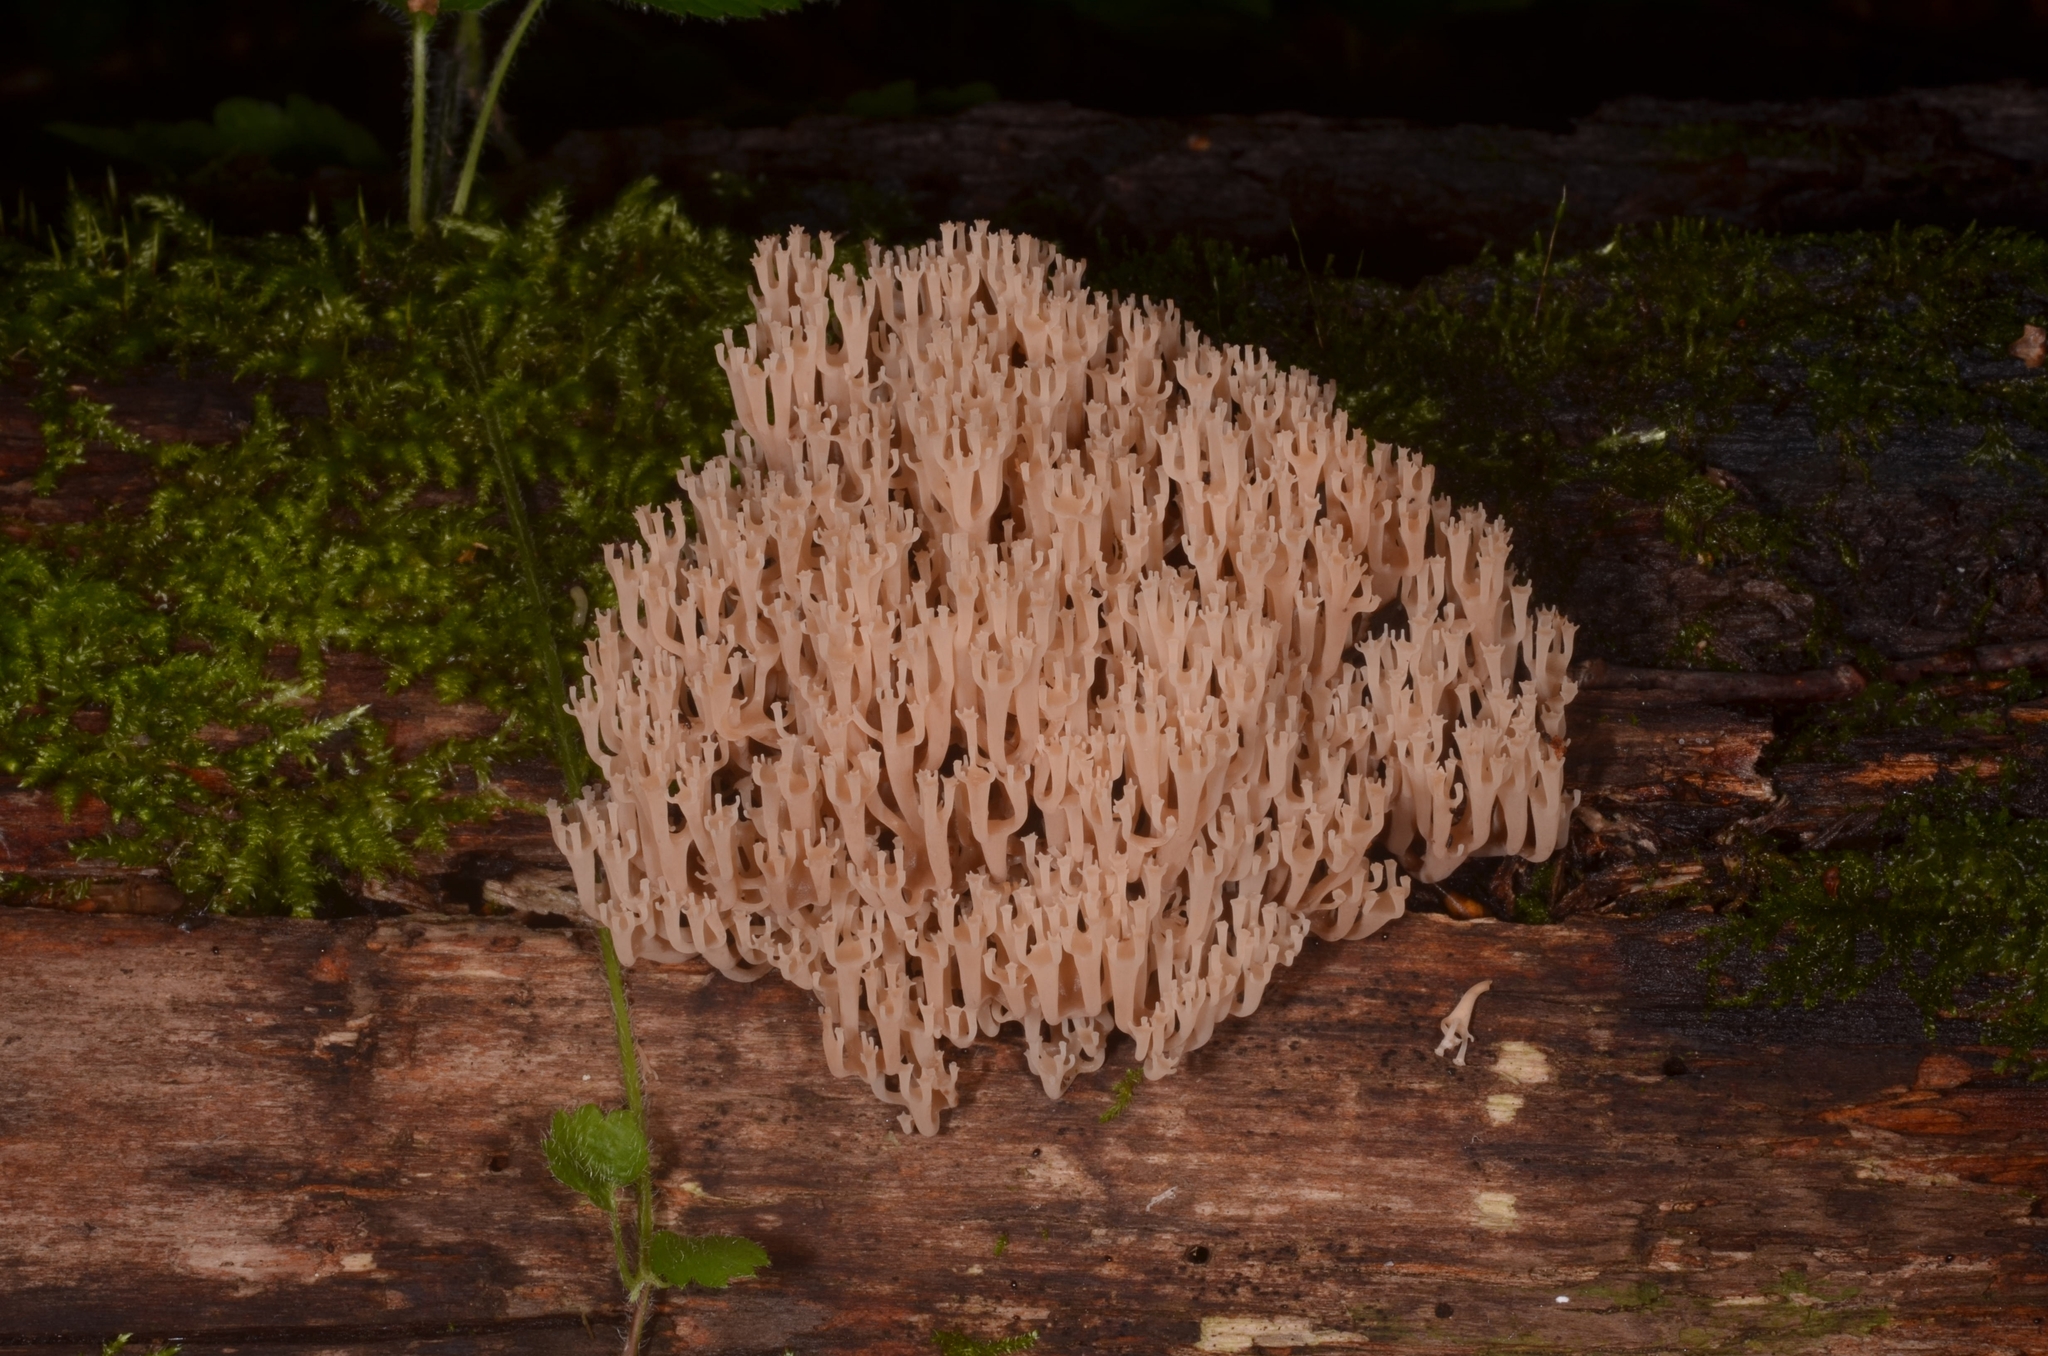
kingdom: Fungi
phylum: Basidiomycota
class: Agaricomycetes
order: Russulales
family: Auriscalpiaceae
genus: Artomyces
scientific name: Artomyces pyxidatus
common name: Crown-tipped coral fungus
